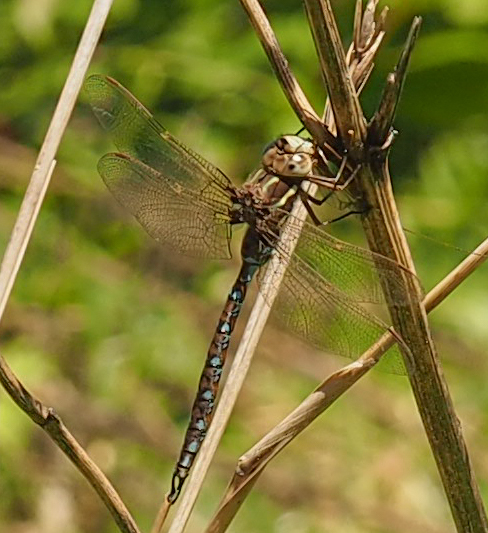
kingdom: Animalia
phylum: Arthropoda
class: Insecta
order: Odonata
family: Aeshnidae
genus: Basiaeschna
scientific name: Basiaeschna janata
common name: Springtime darner
